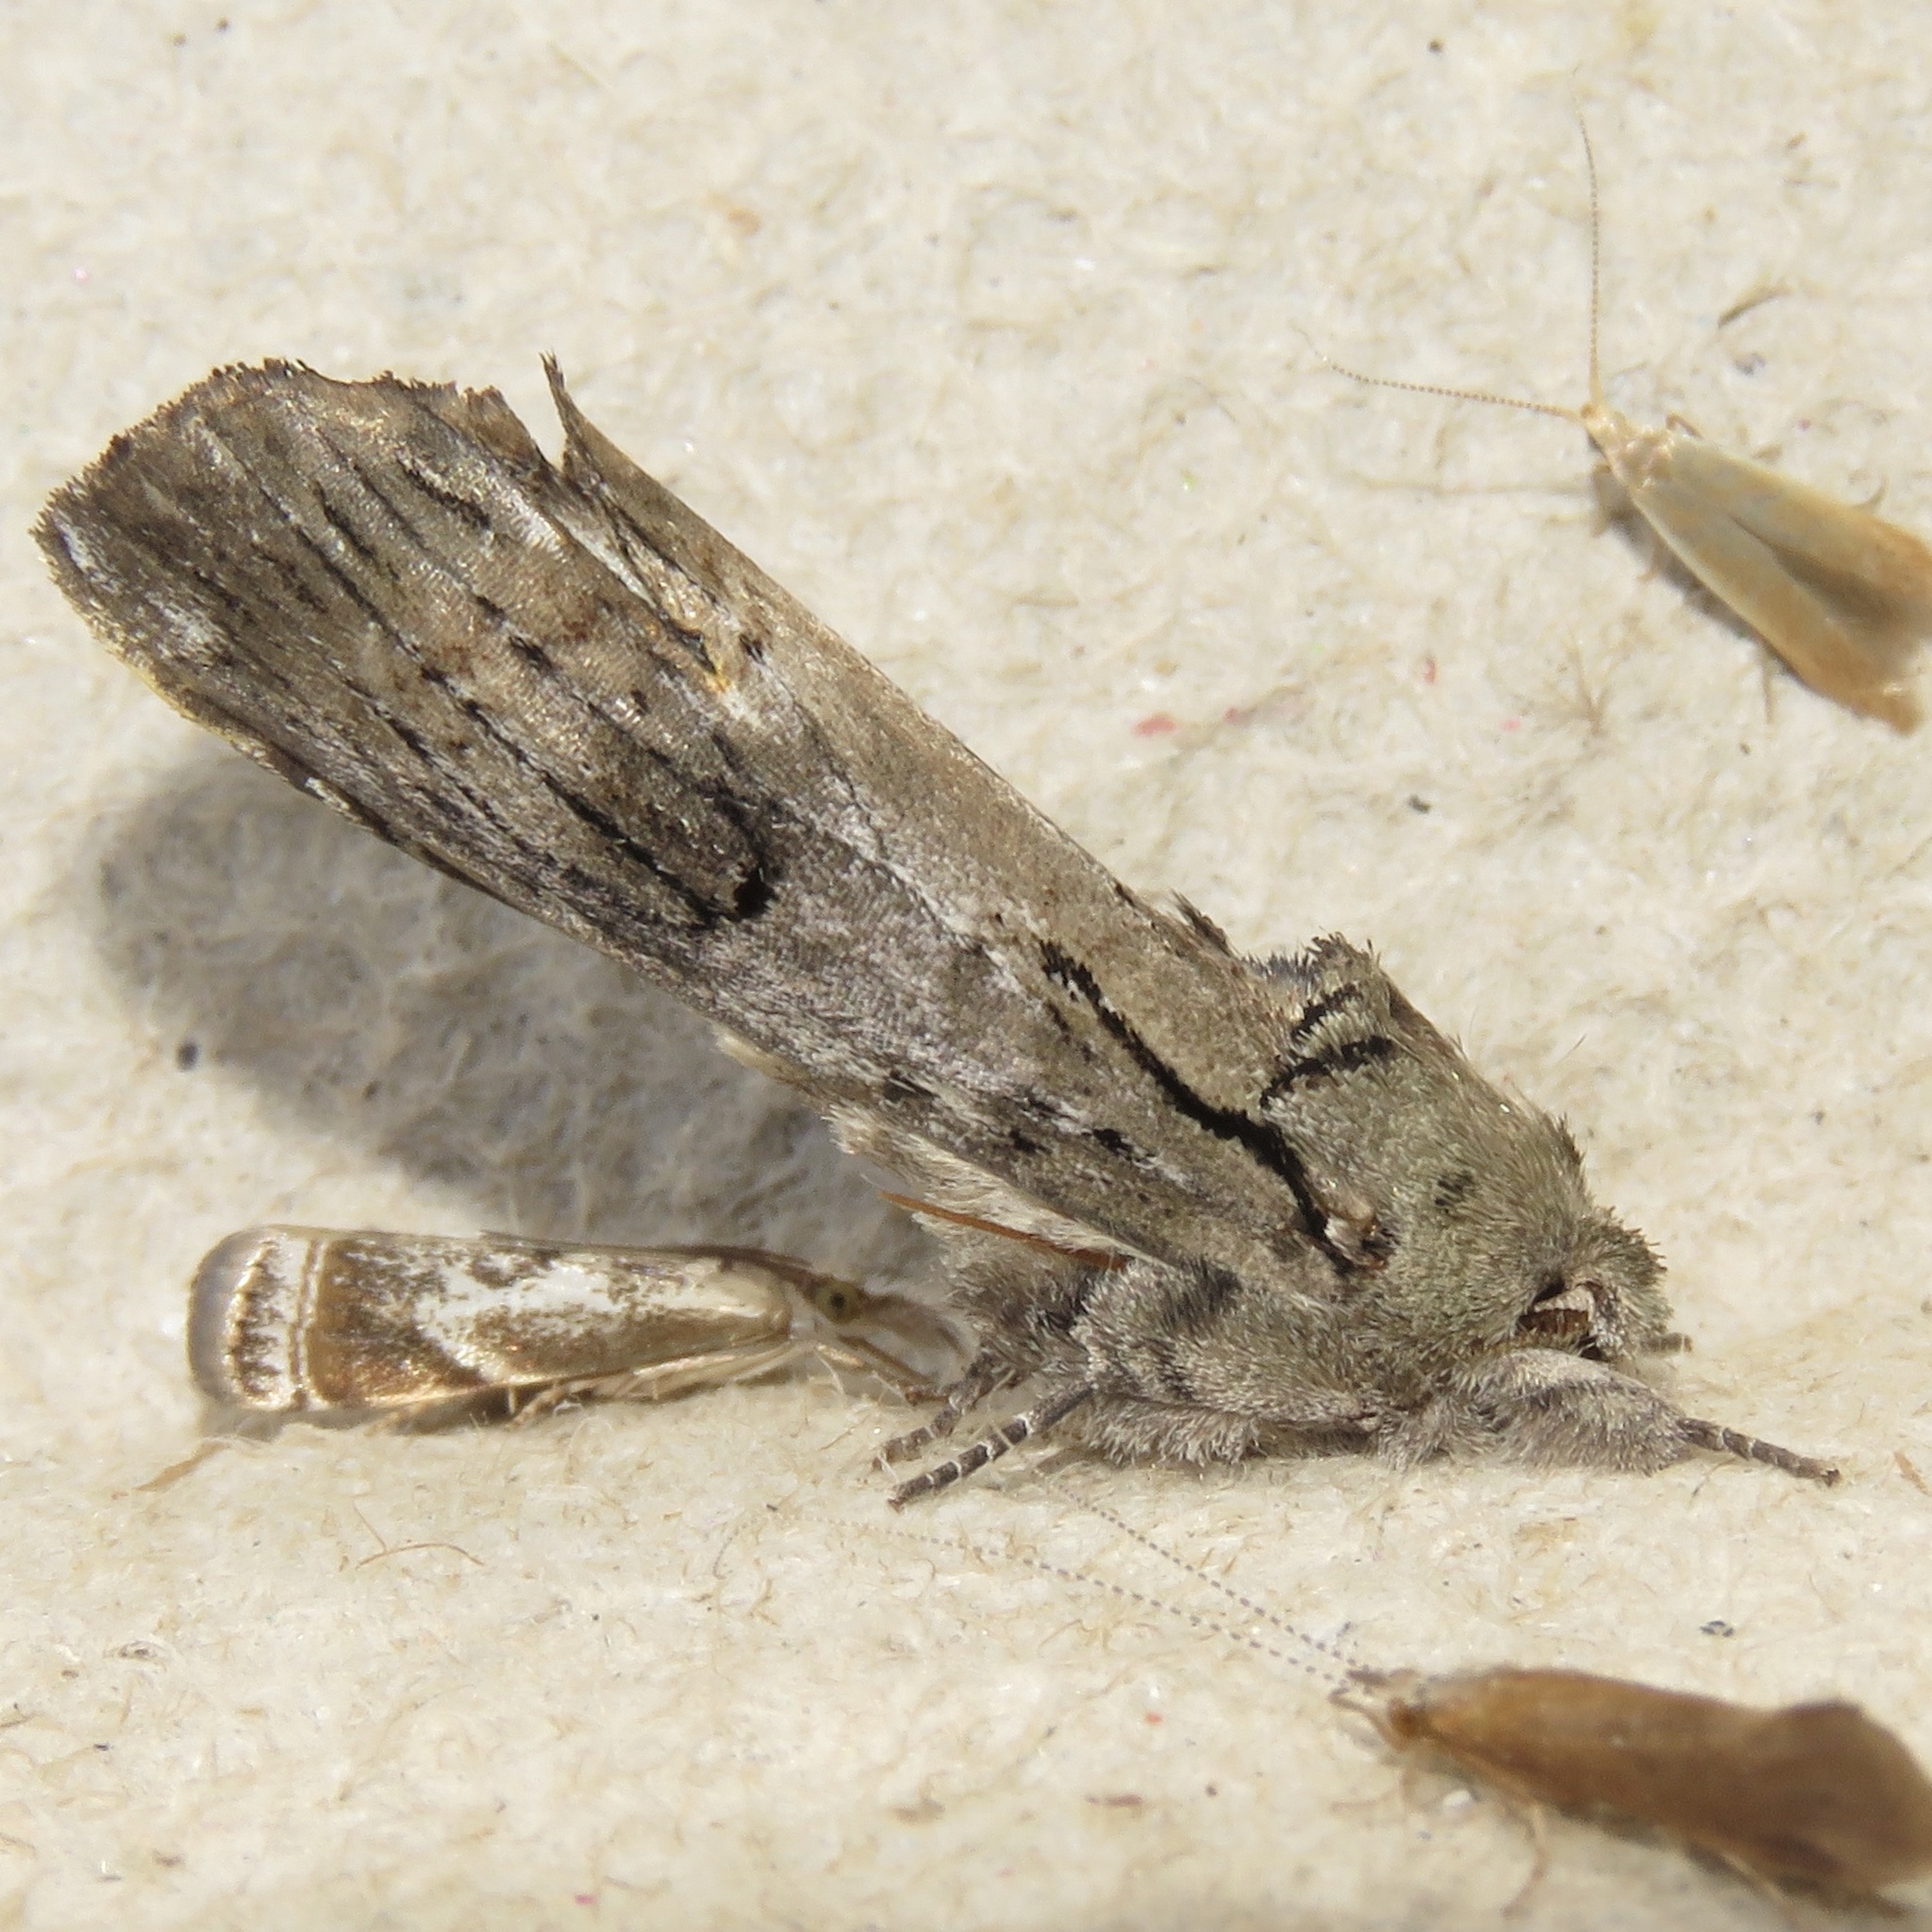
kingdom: Animalia
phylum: Arthropoda
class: Insecta
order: Lepidoptera
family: Notodontidae
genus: Schizura
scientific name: Schizura
